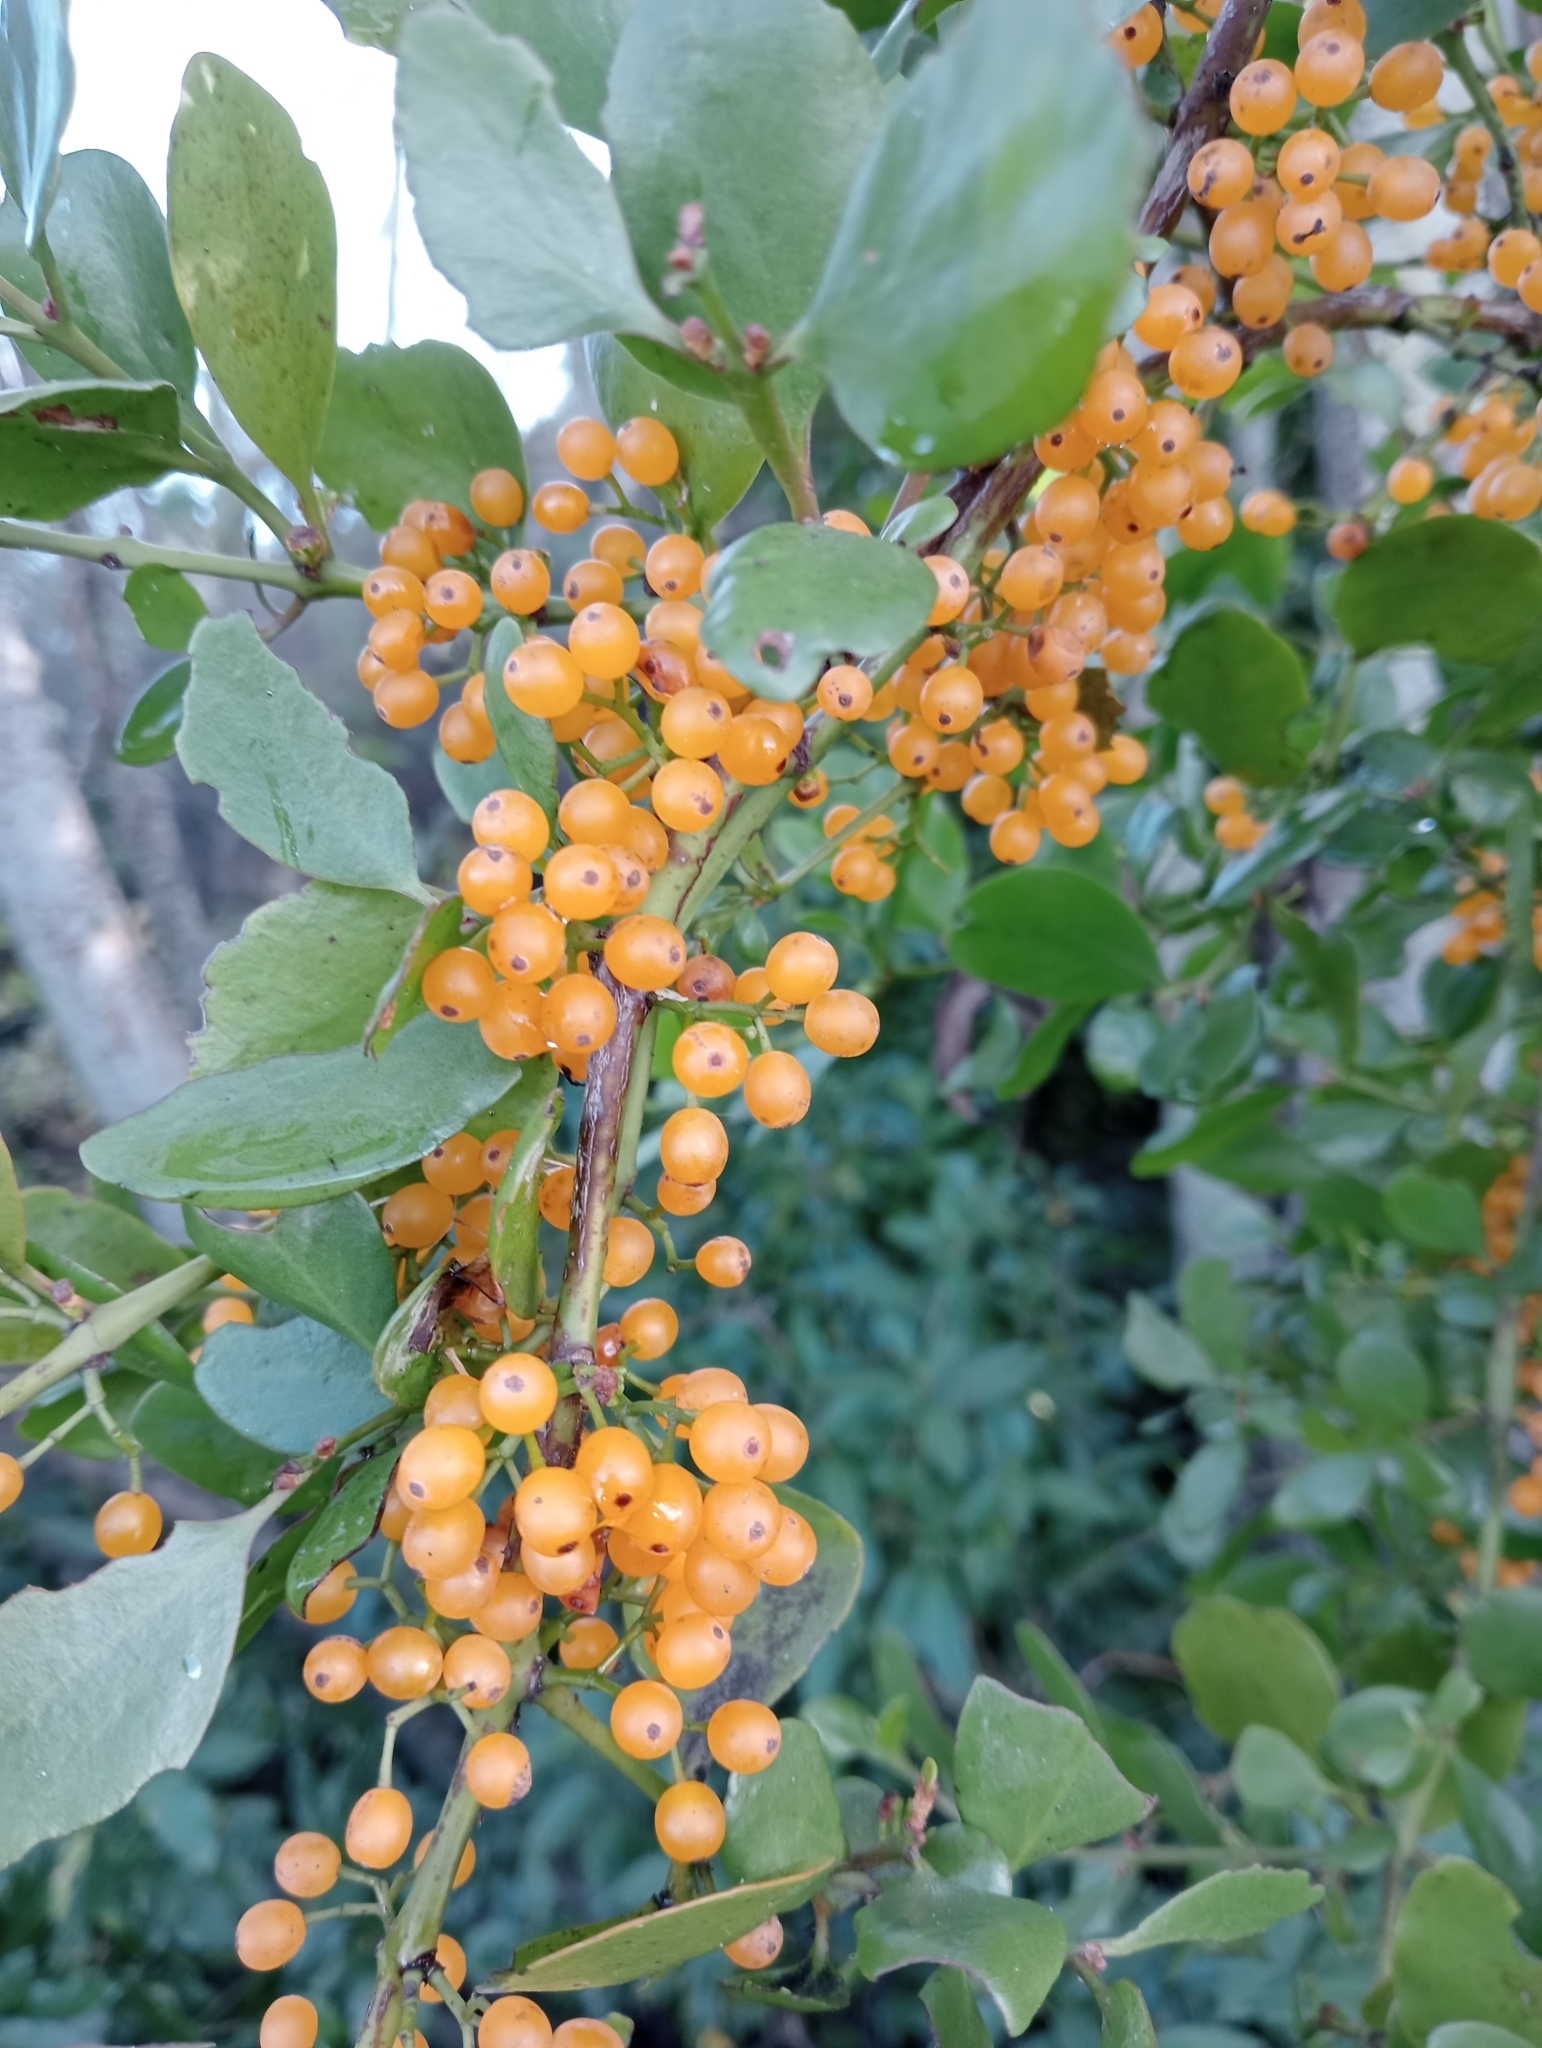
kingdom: Plantae
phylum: Tracheophyta
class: Magnoliopsida
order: Santalales
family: Loranthaceae
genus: Ileostylus
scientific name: Ileostylus micranthus
